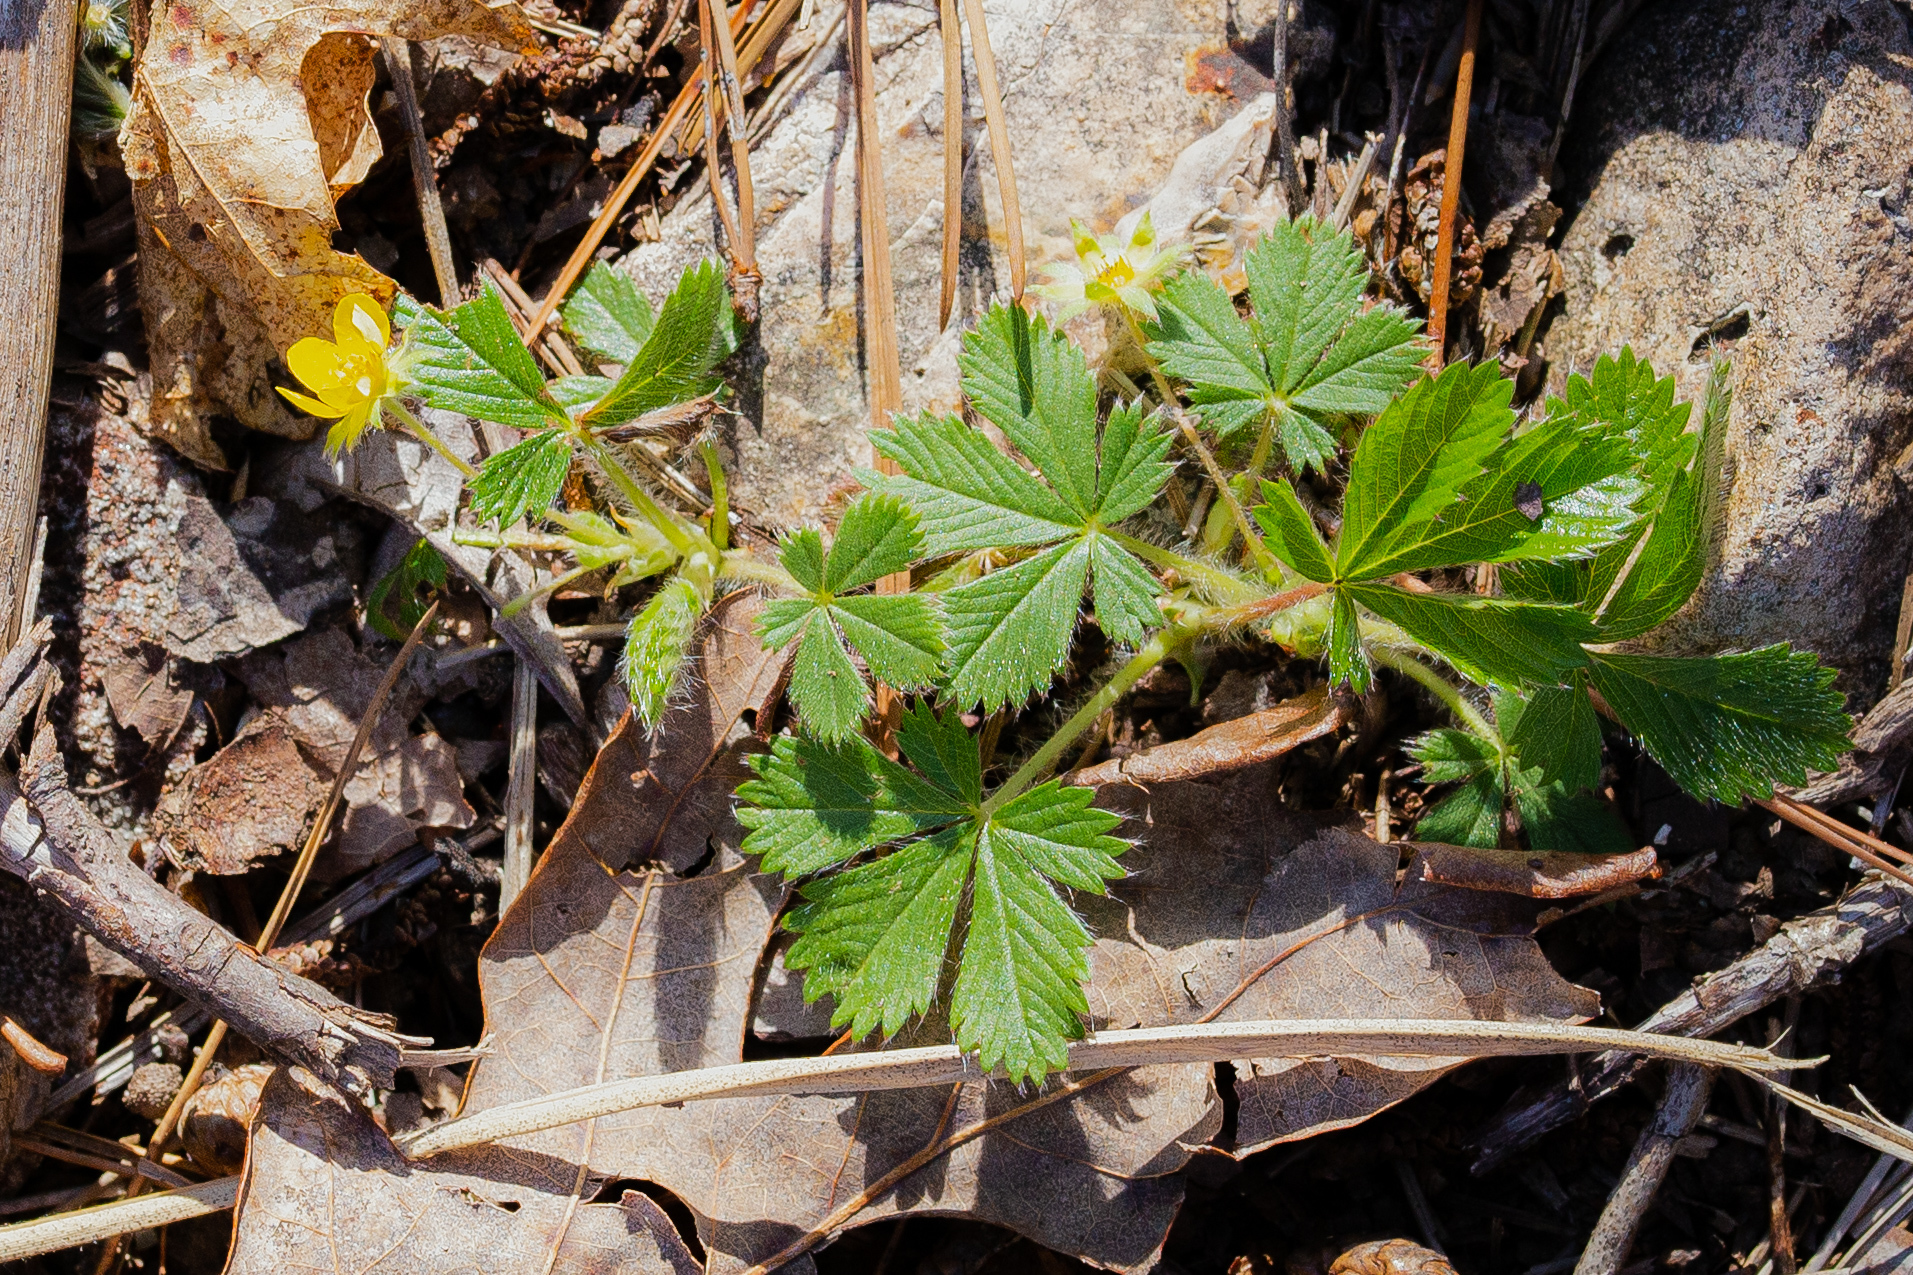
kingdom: Plantae
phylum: Tracheophyta
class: Magnoliopsida
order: Rosales
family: Rosaceae
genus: Potentilla
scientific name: Potentilla canadensis
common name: Canada cinquefoil
